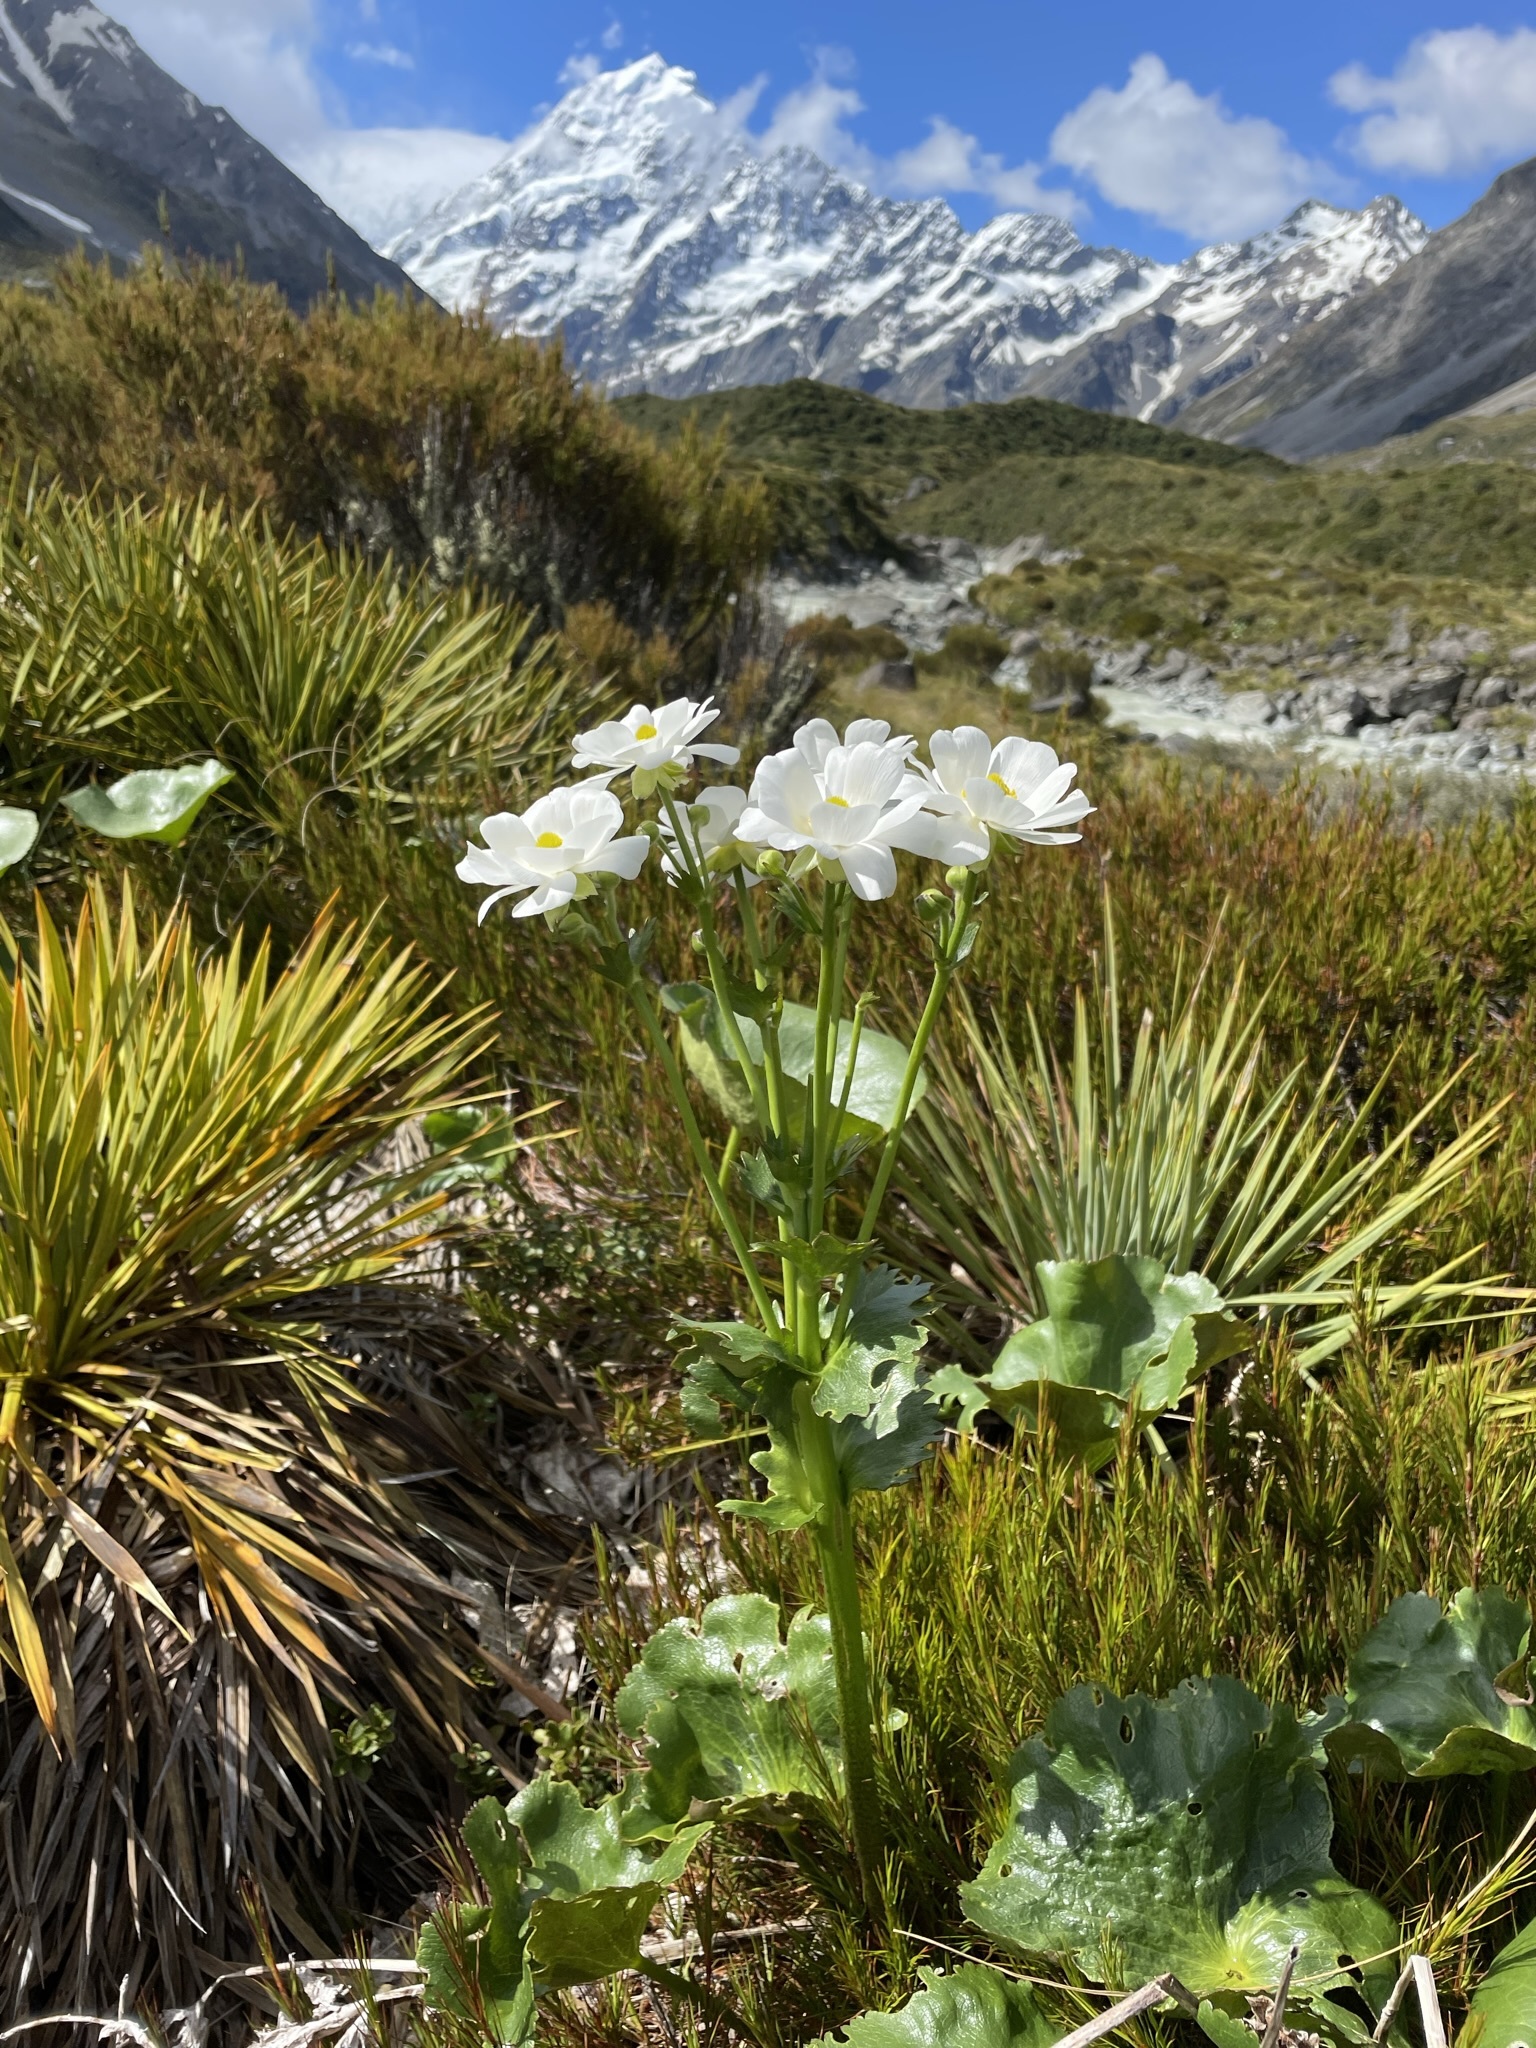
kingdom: Plantae
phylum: Tracheophyta
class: Magnoliopsida
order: Ranunculales
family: Ranunculaceae
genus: Ranunculus
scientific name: Ranunculus lyallii
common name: Mountain-lily
